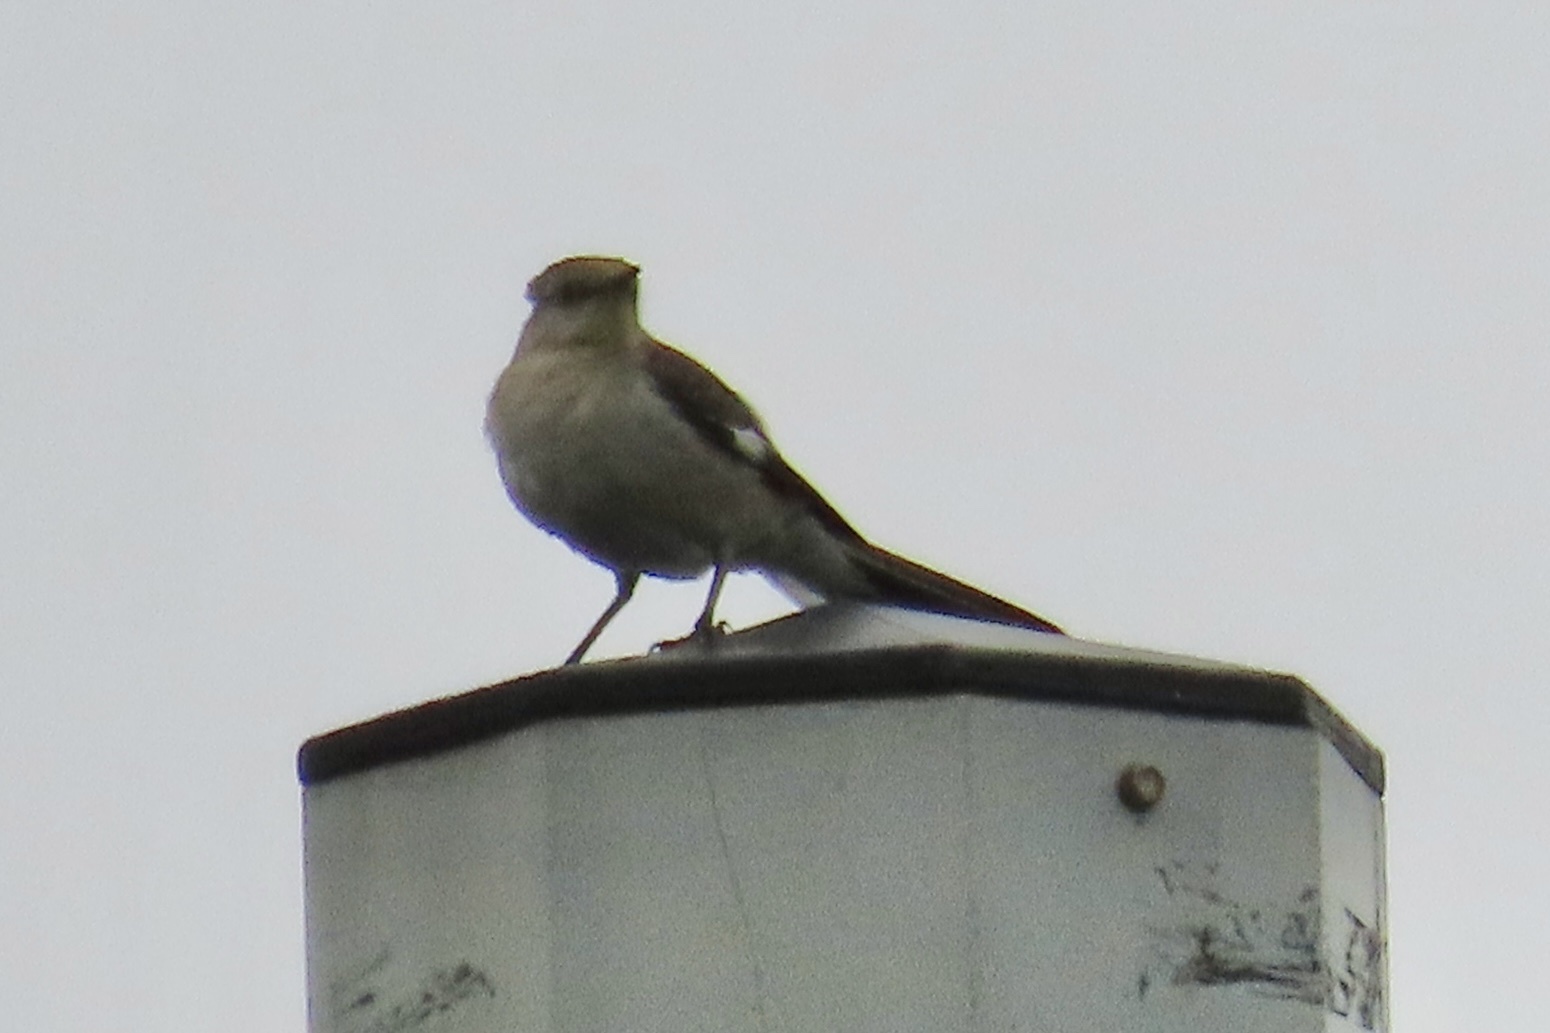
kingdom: Animalia
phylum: Chordata
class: Aves
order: Passeriformes
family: Mimidae
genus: Mimus
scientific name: Mimus polyglottos
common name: Northern mockingbird
